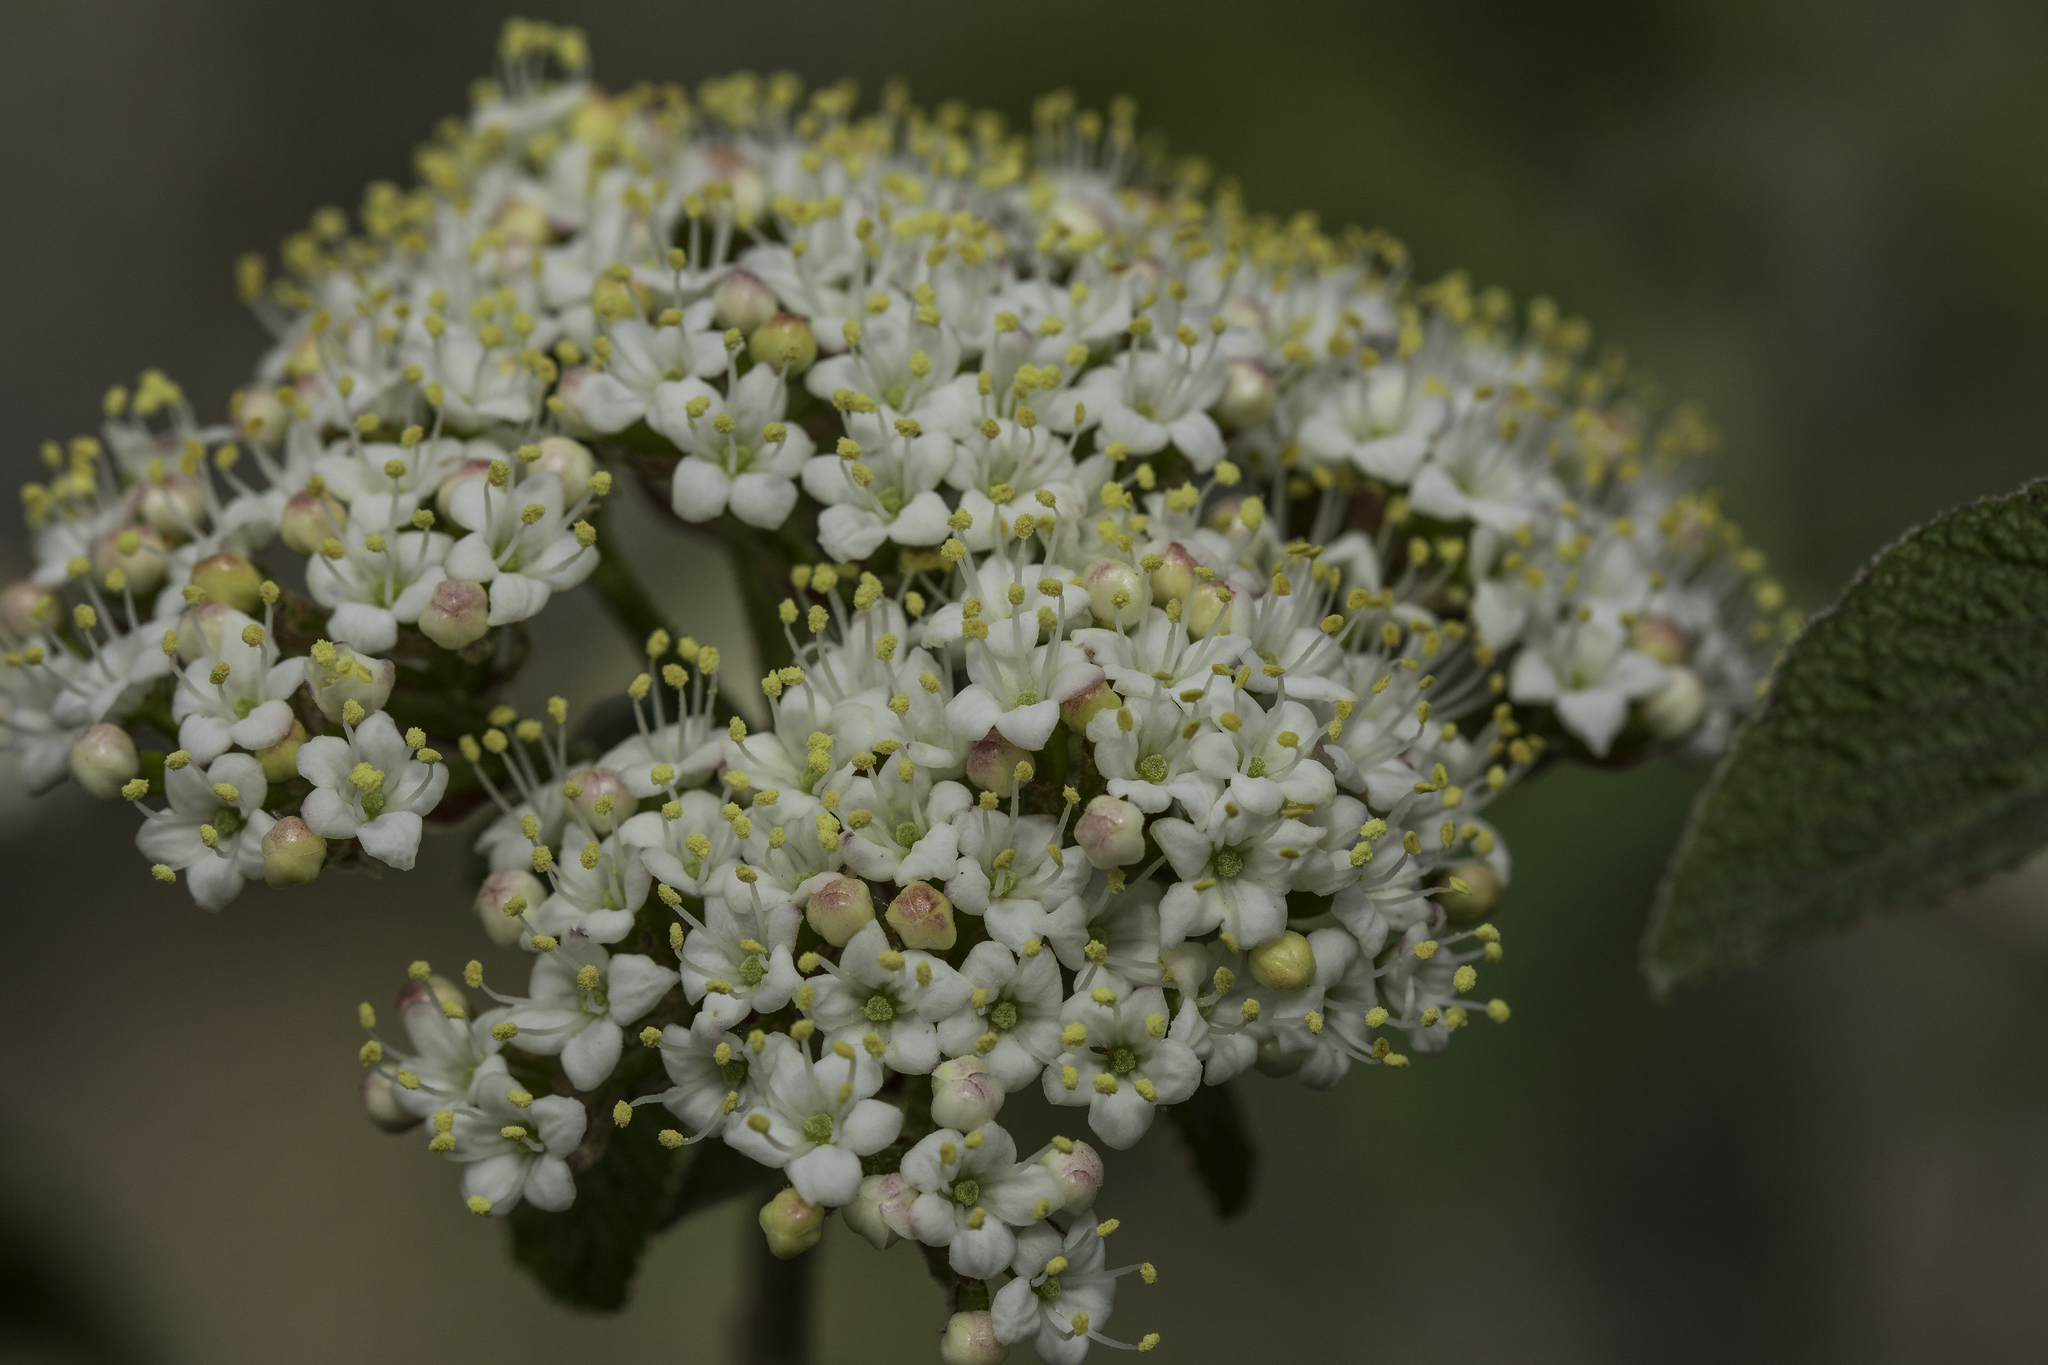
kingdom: Plantae
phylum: Tracheophyta
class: Magnoliopsida
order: Dipsacales
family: Viburnaceae
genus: Viburnum
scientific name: Viburnum lantana
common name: Wayfaring tree
